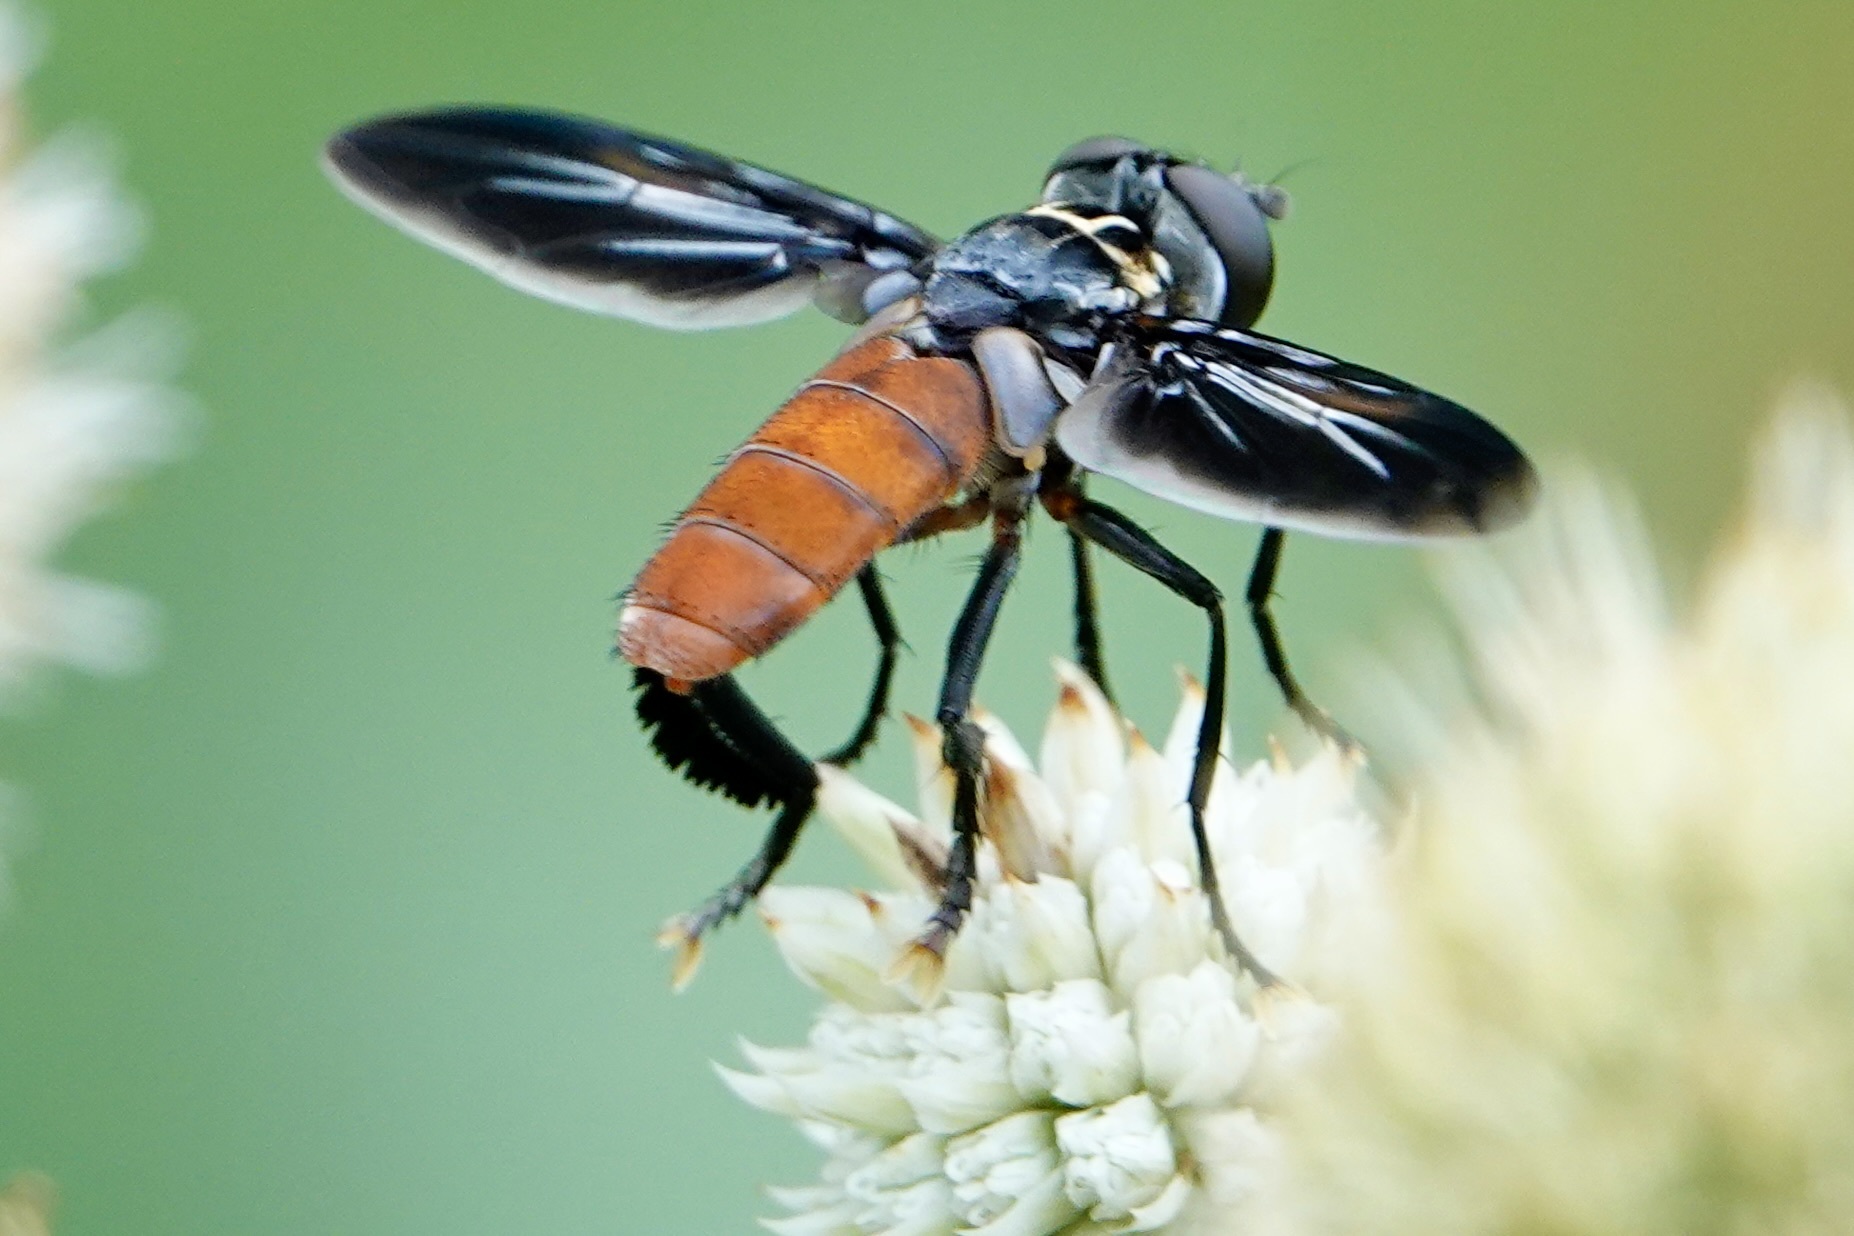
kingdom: Animalia
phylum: Arthropoda
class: Insecta
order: Diptera
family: Tachinidae
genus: Trichopoda
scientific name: Trichopoda lanipes
